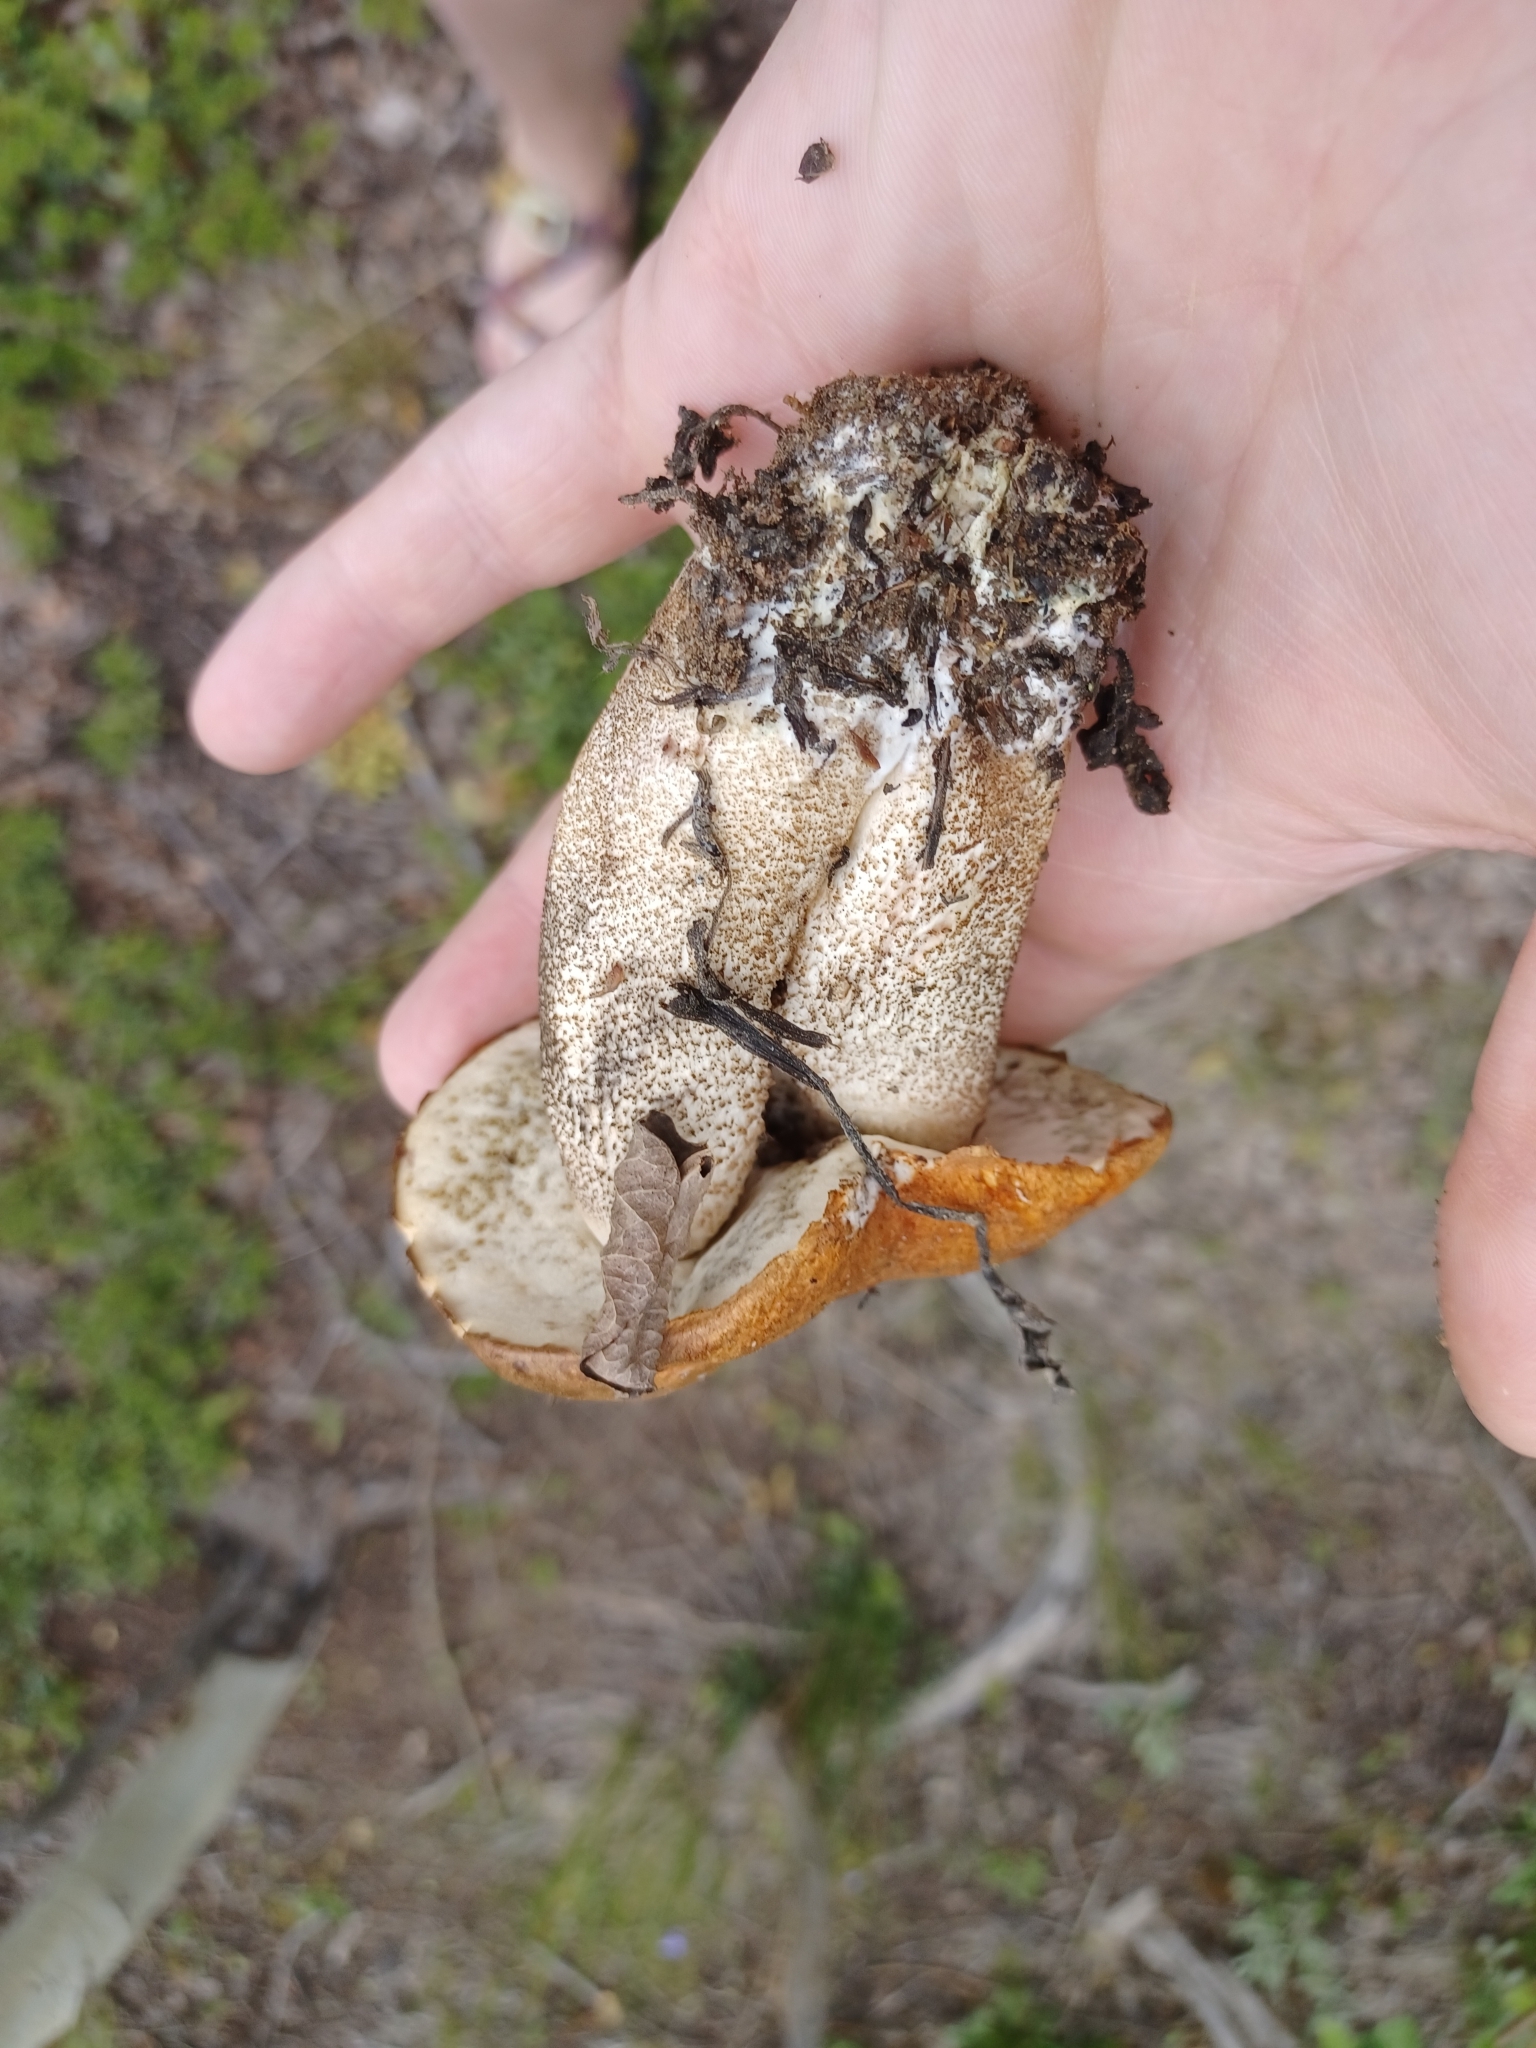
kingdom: Fungi
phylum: Basidiomycota
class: Agaricomycetes
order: Boletales
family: Boletaceae
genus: Leccinum
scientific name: Leccinum insigne
